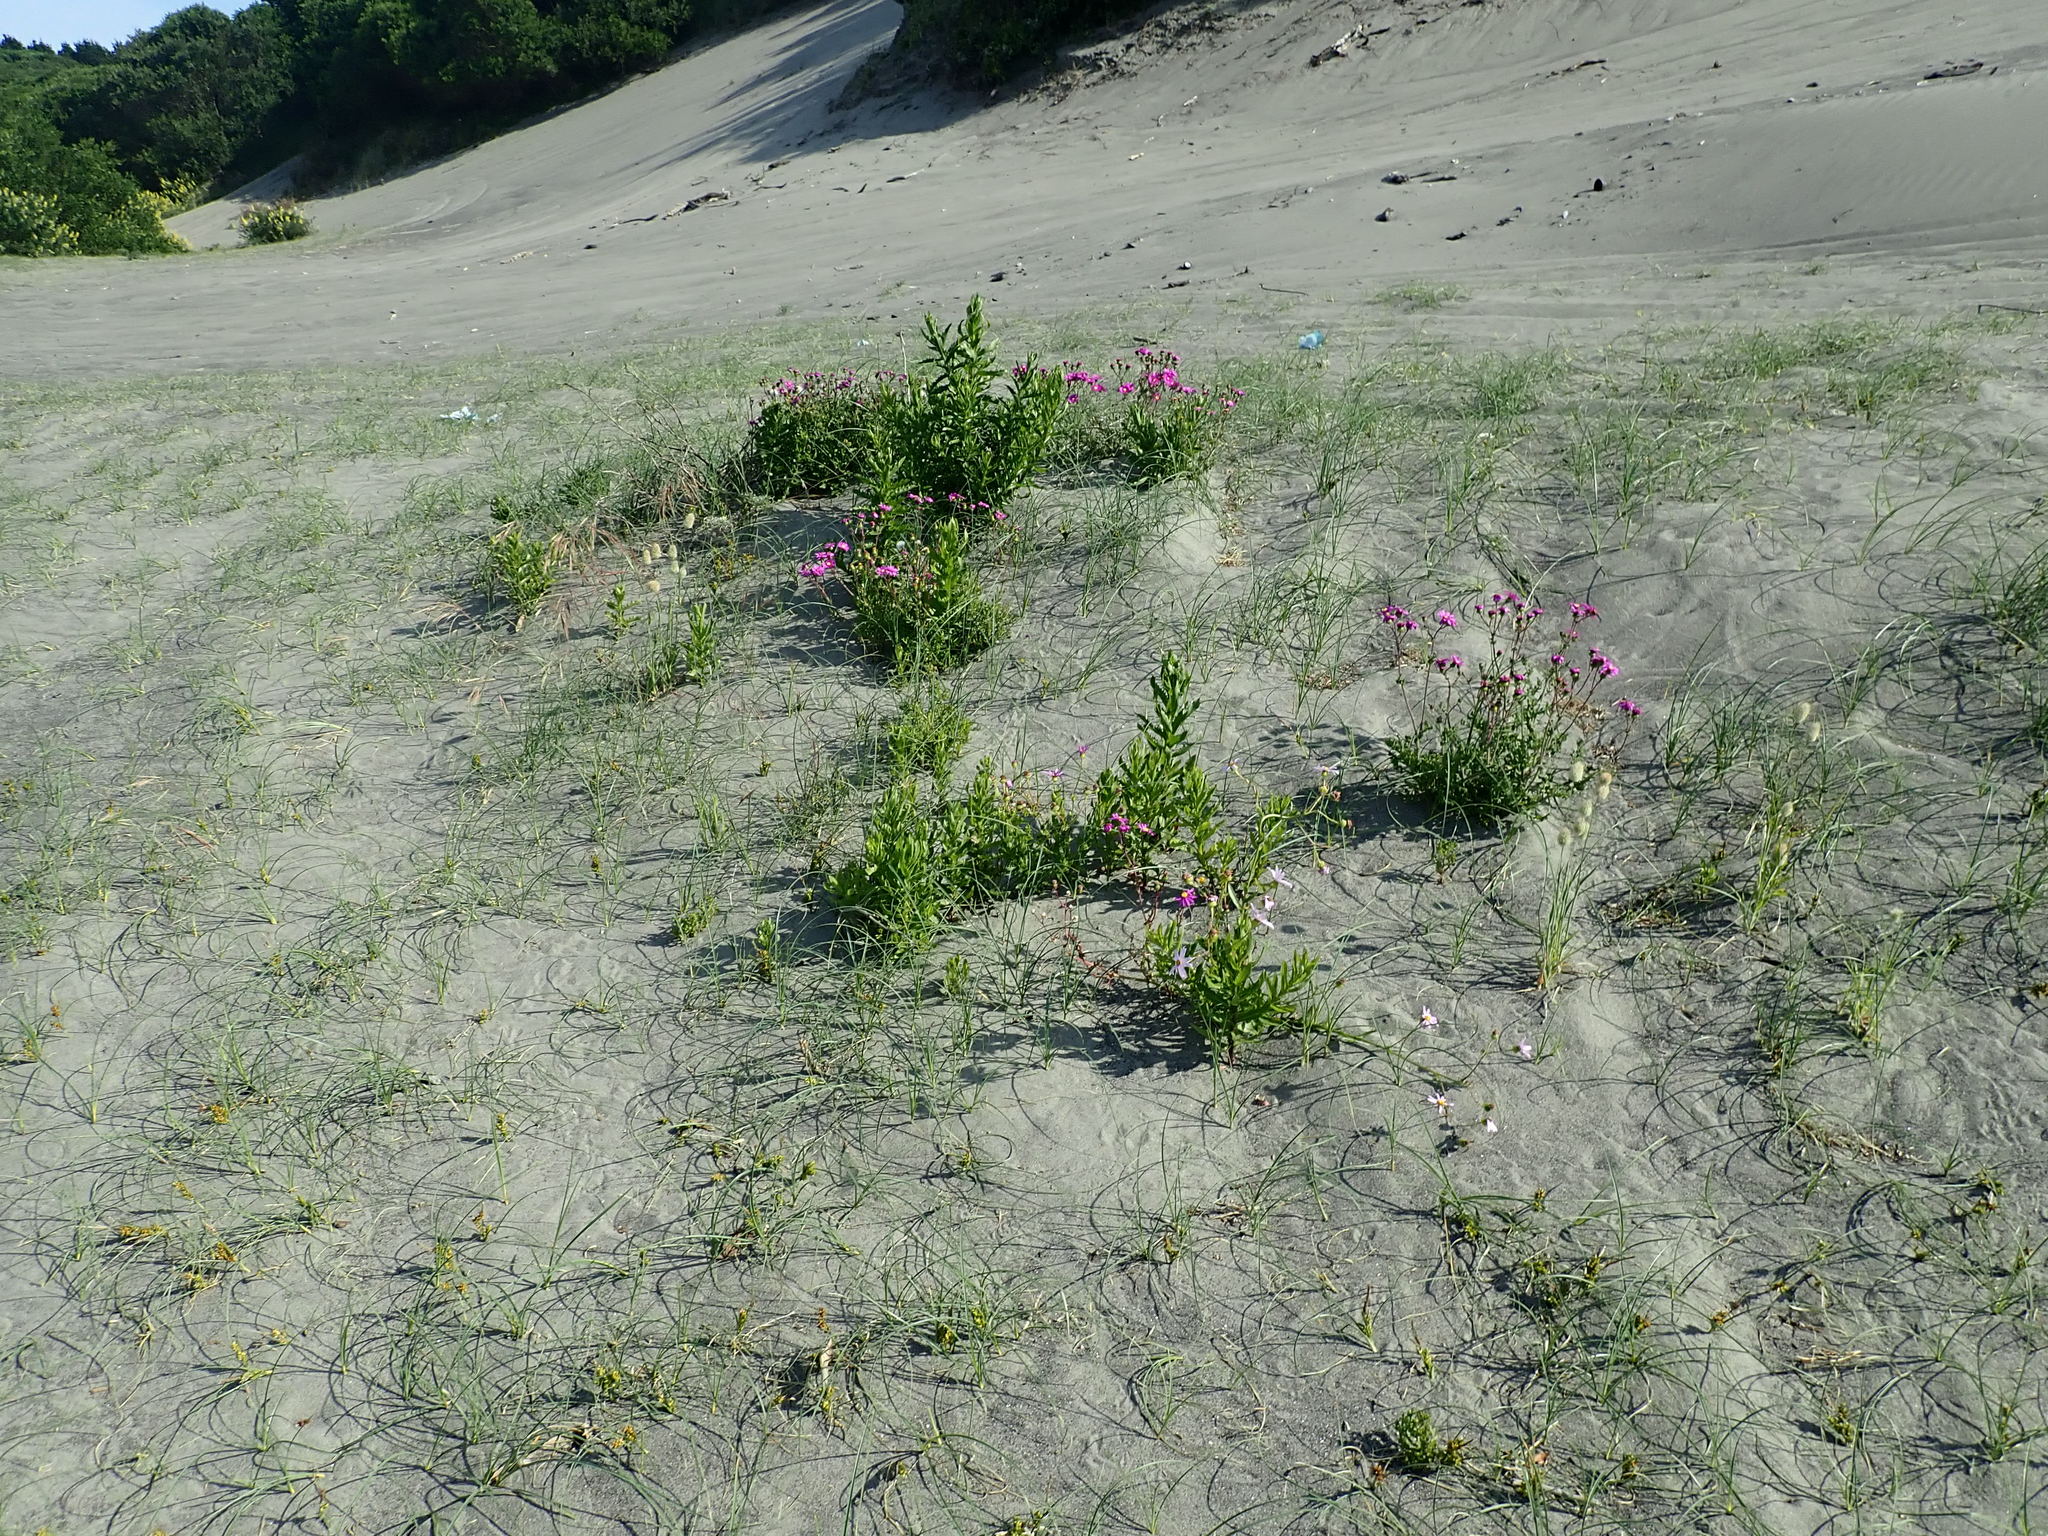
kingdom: Plantae
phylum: Tracheophyta
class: Magnoliopsida
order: Asterales
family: Asteraceae
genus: Senecio
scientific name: Senecio elegans
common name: Purple groundsel
